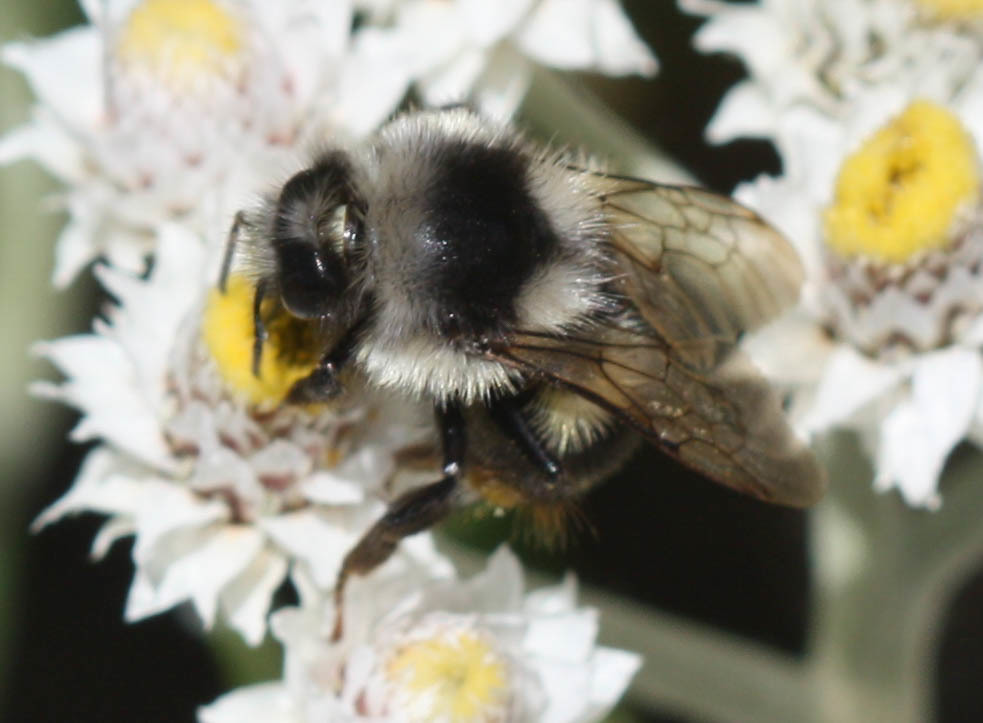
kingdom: Animalia
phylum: Arthropoda
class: Insecta
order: Hymenoptera
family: Apidae
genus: Bombus
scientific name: Bombus vancouverensis
